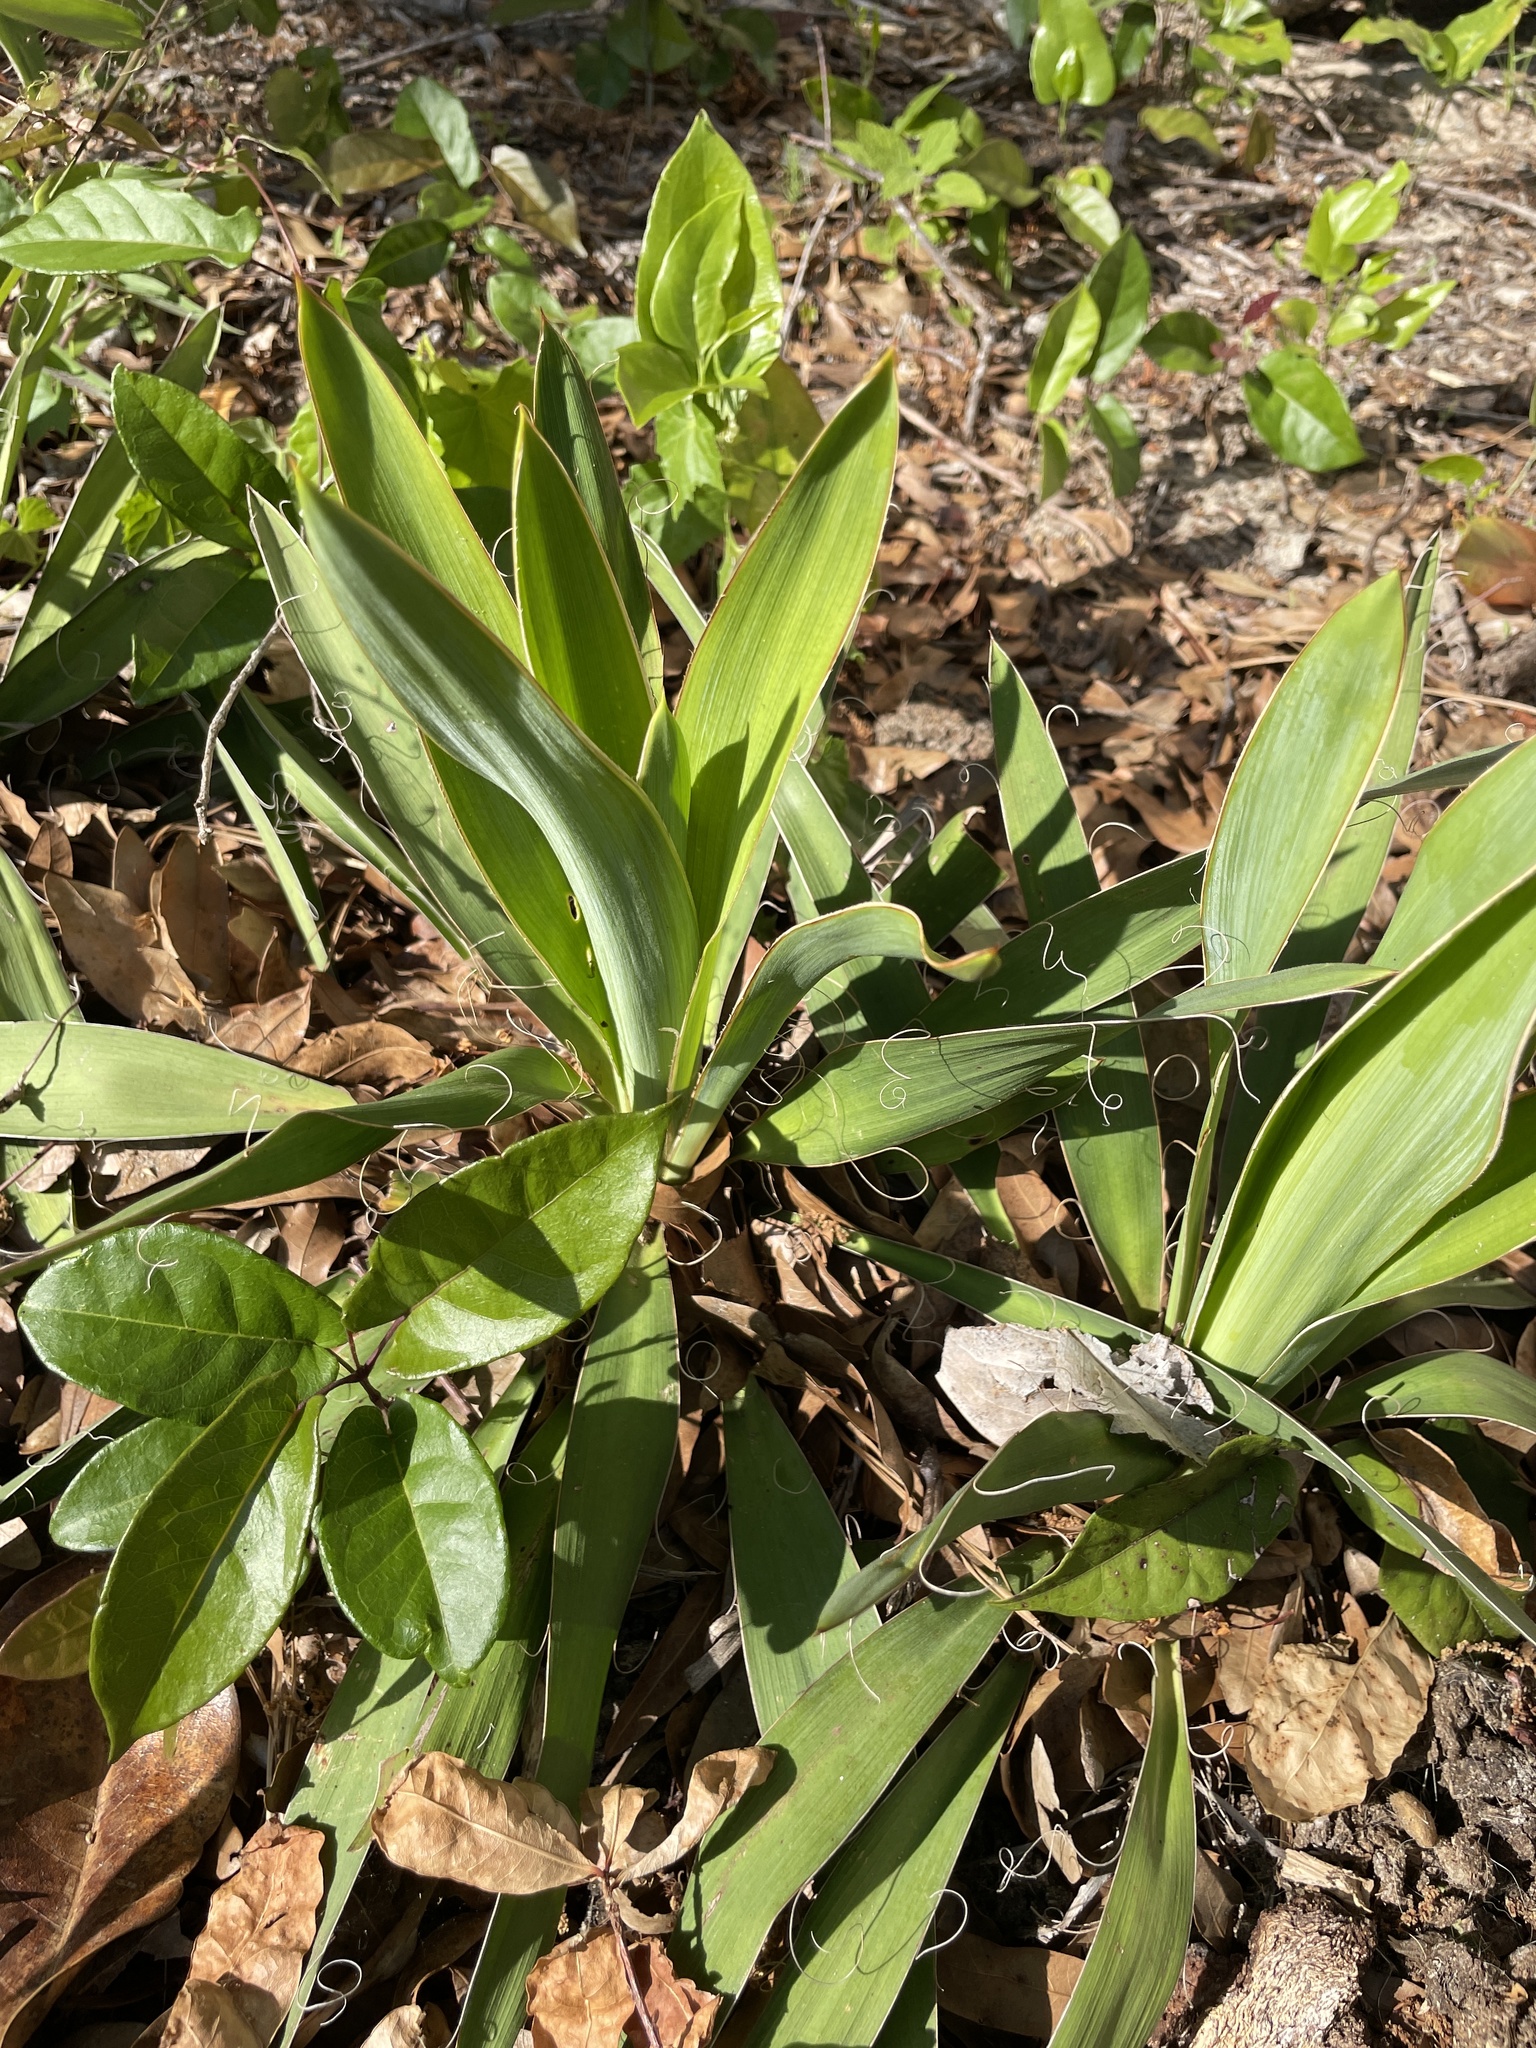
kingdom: Plantae
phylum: Tracheophyta
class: Liliopsida
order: Asparagales
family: Asparagaceae
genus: Yucca
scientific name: Yucca filamentosa
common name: Adam's-needle
